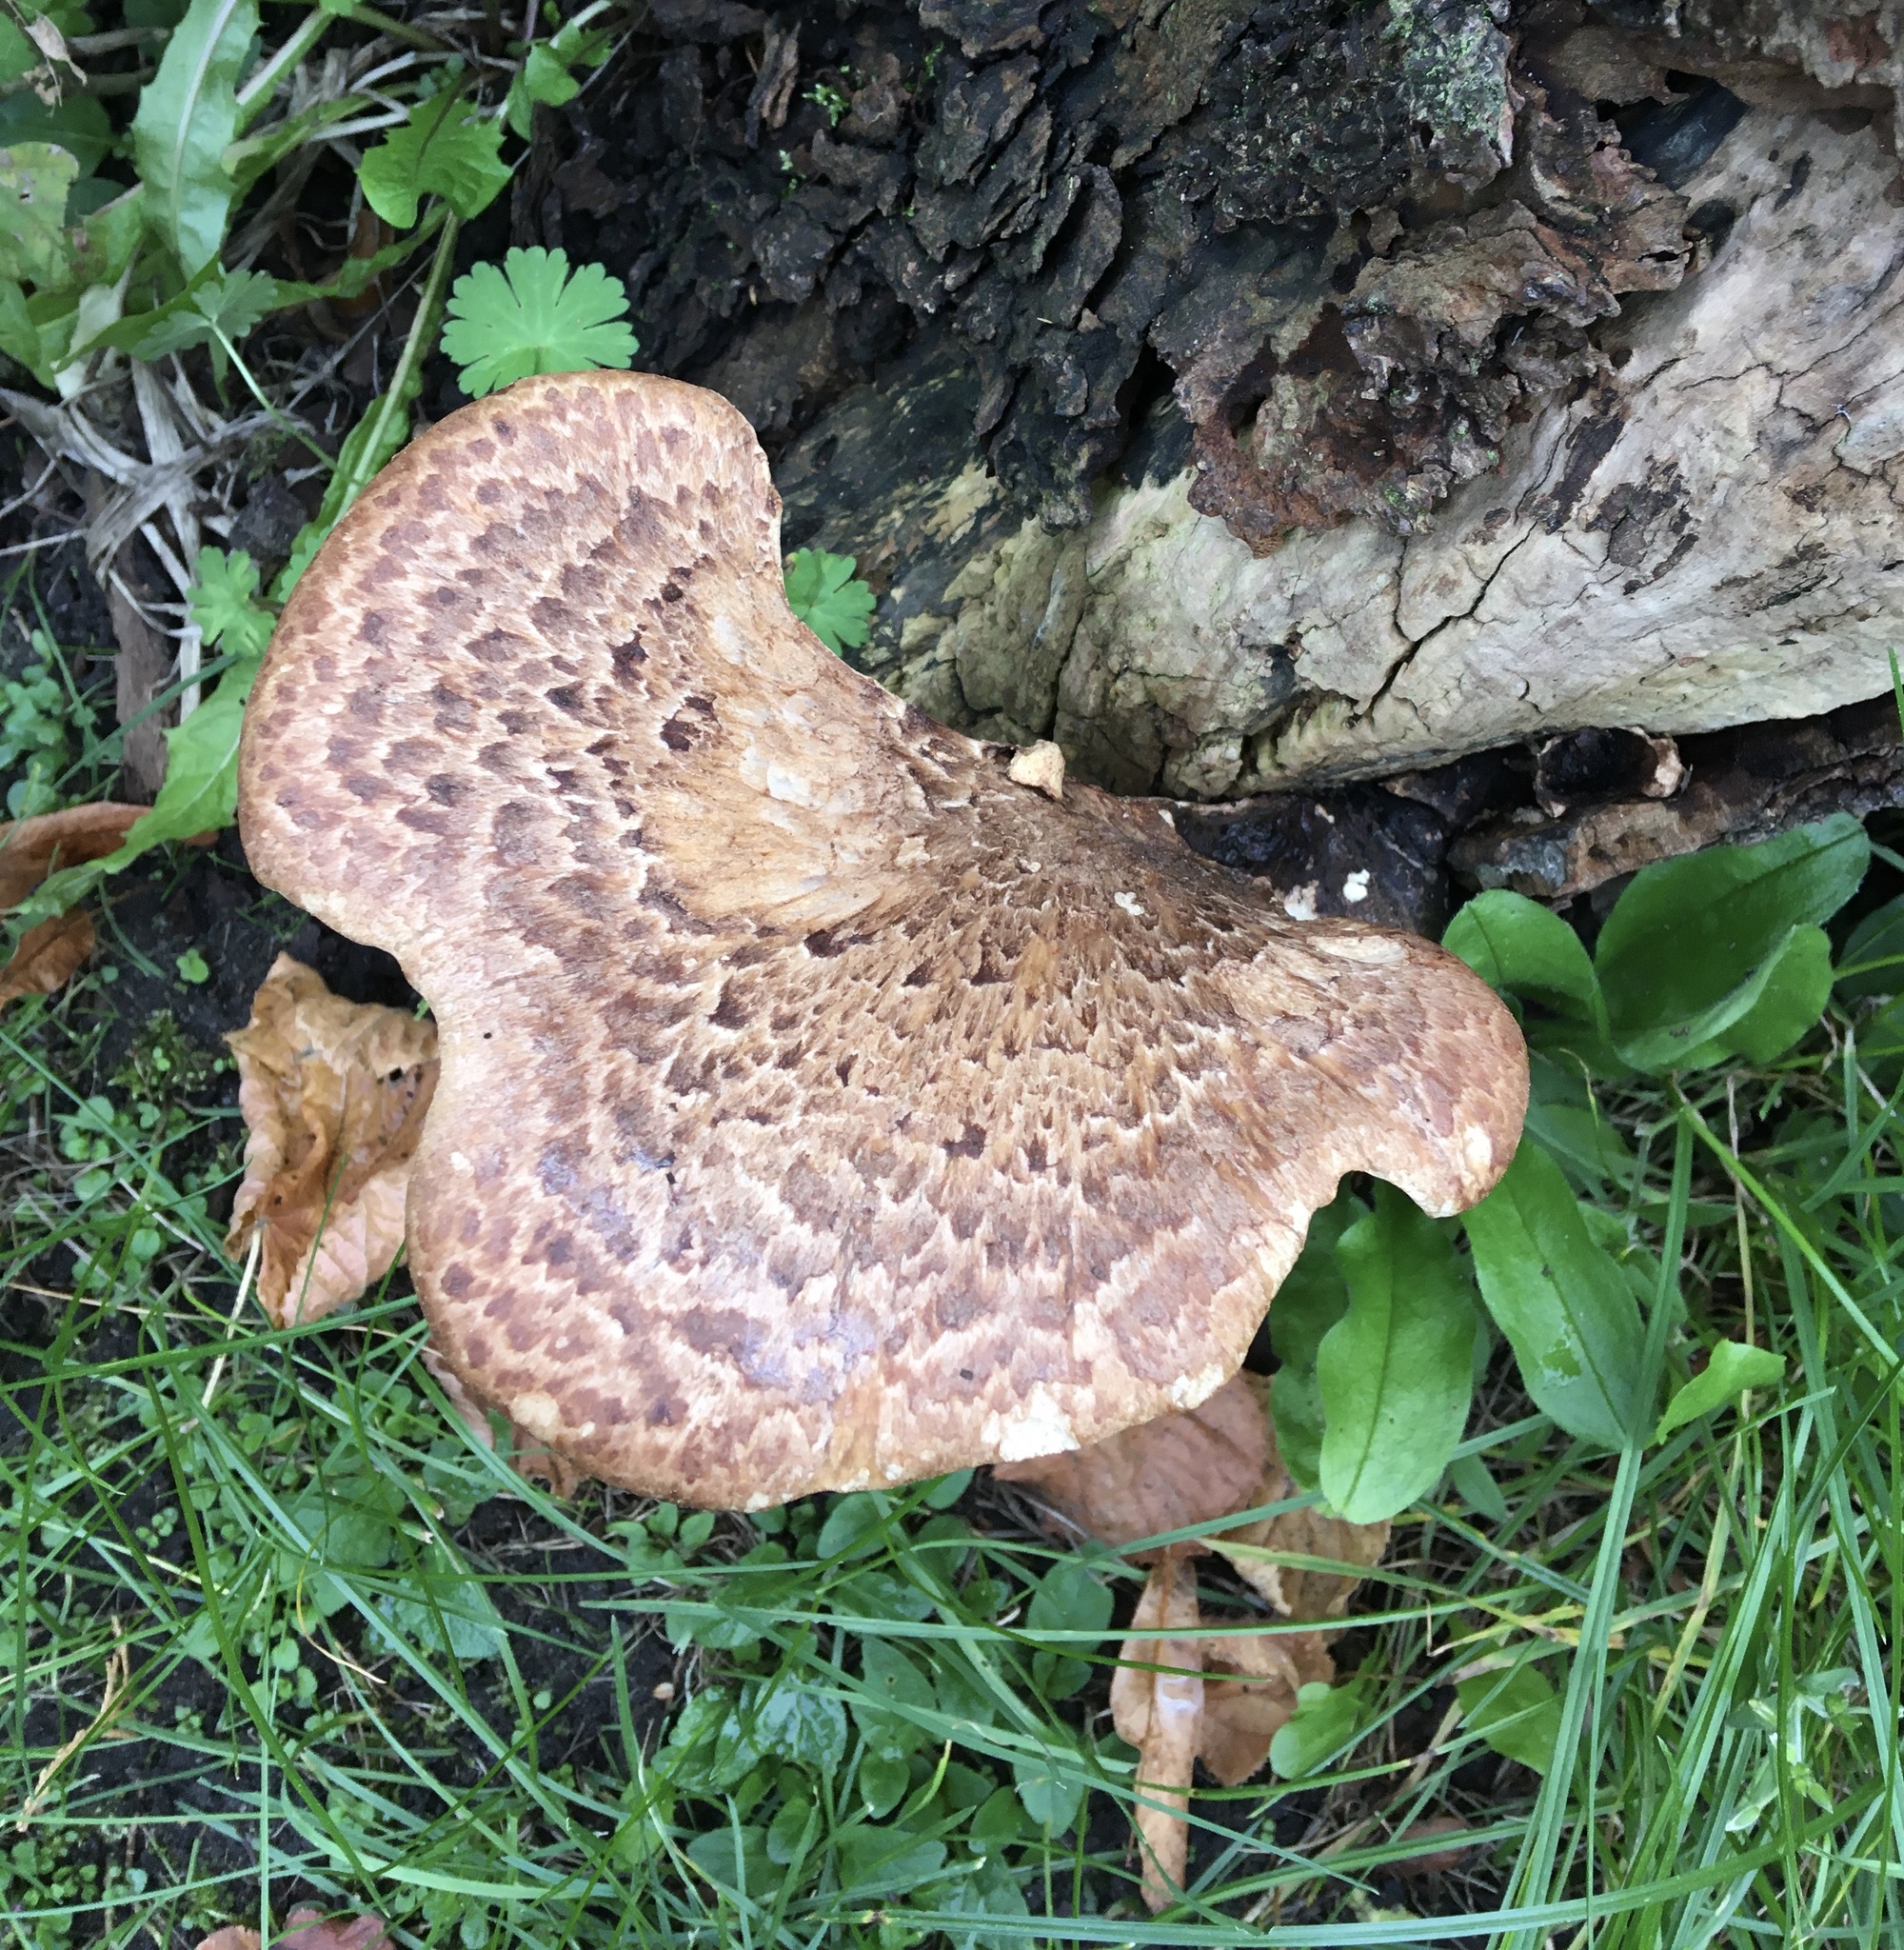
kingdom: Fungi
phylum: Basidiomycota
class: Agaricomycetes
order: Polyporales
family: Polyporaceae
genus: Cerioporus
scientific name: Cerioporus squamosus
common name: Dryad's saddle
